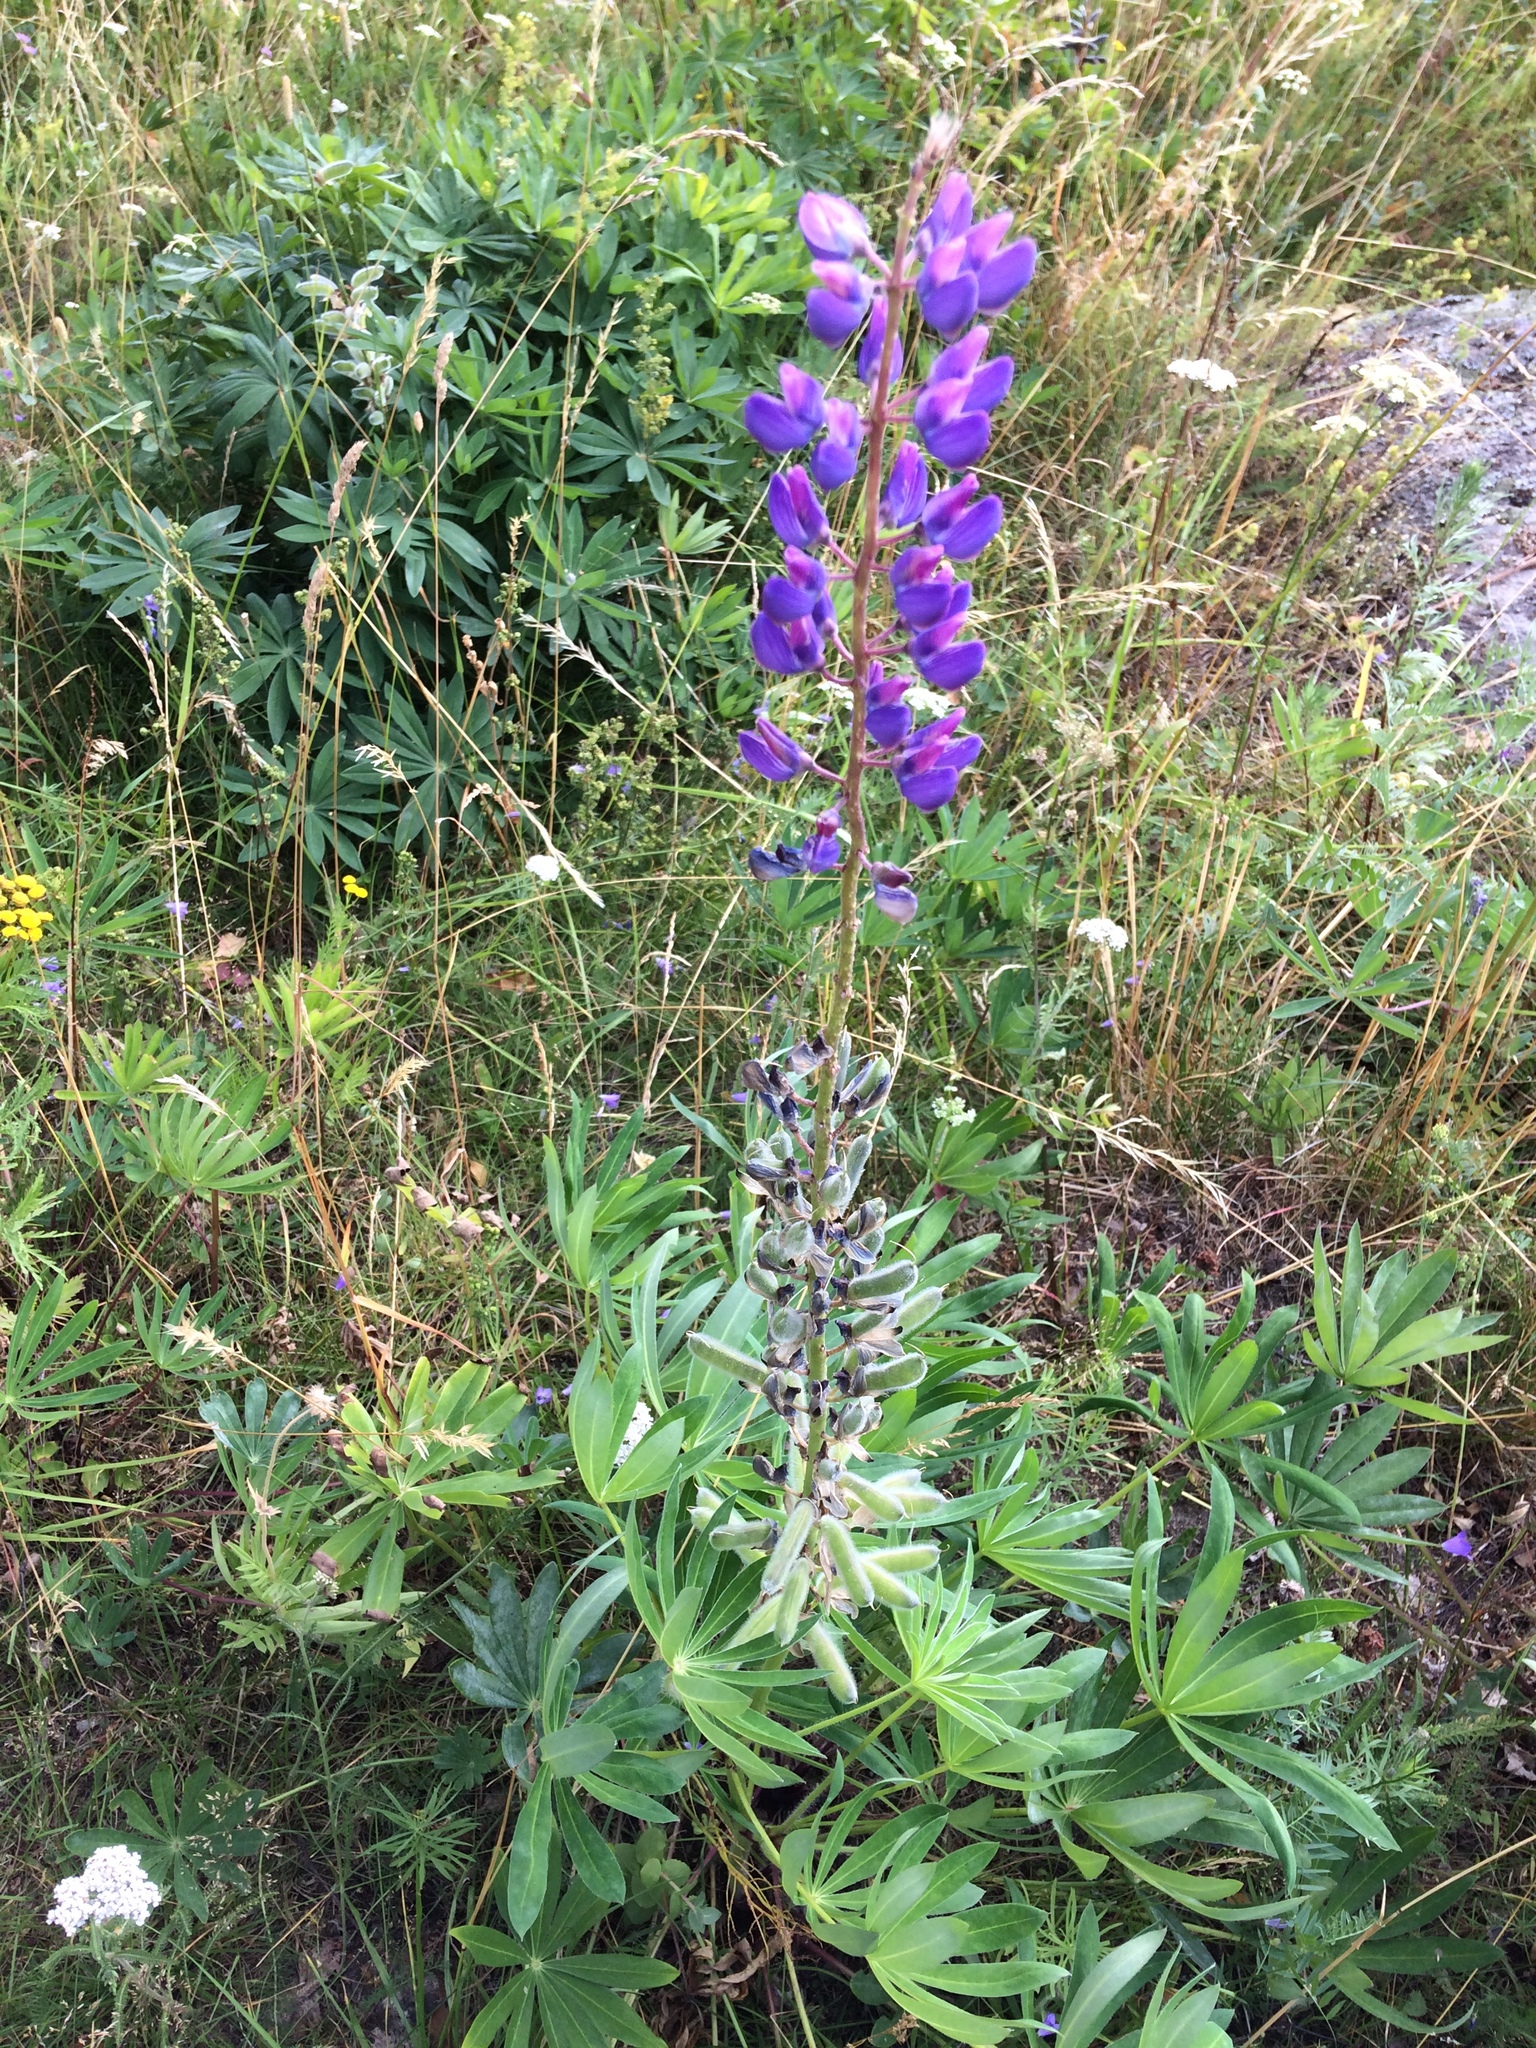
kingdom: Plantae
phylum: Tracheophyta
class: Magnoliopsida
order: Fabales
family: Fabaceae
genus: Lupinus
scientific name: Lupinus polyphyllus
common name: Garden lupin
